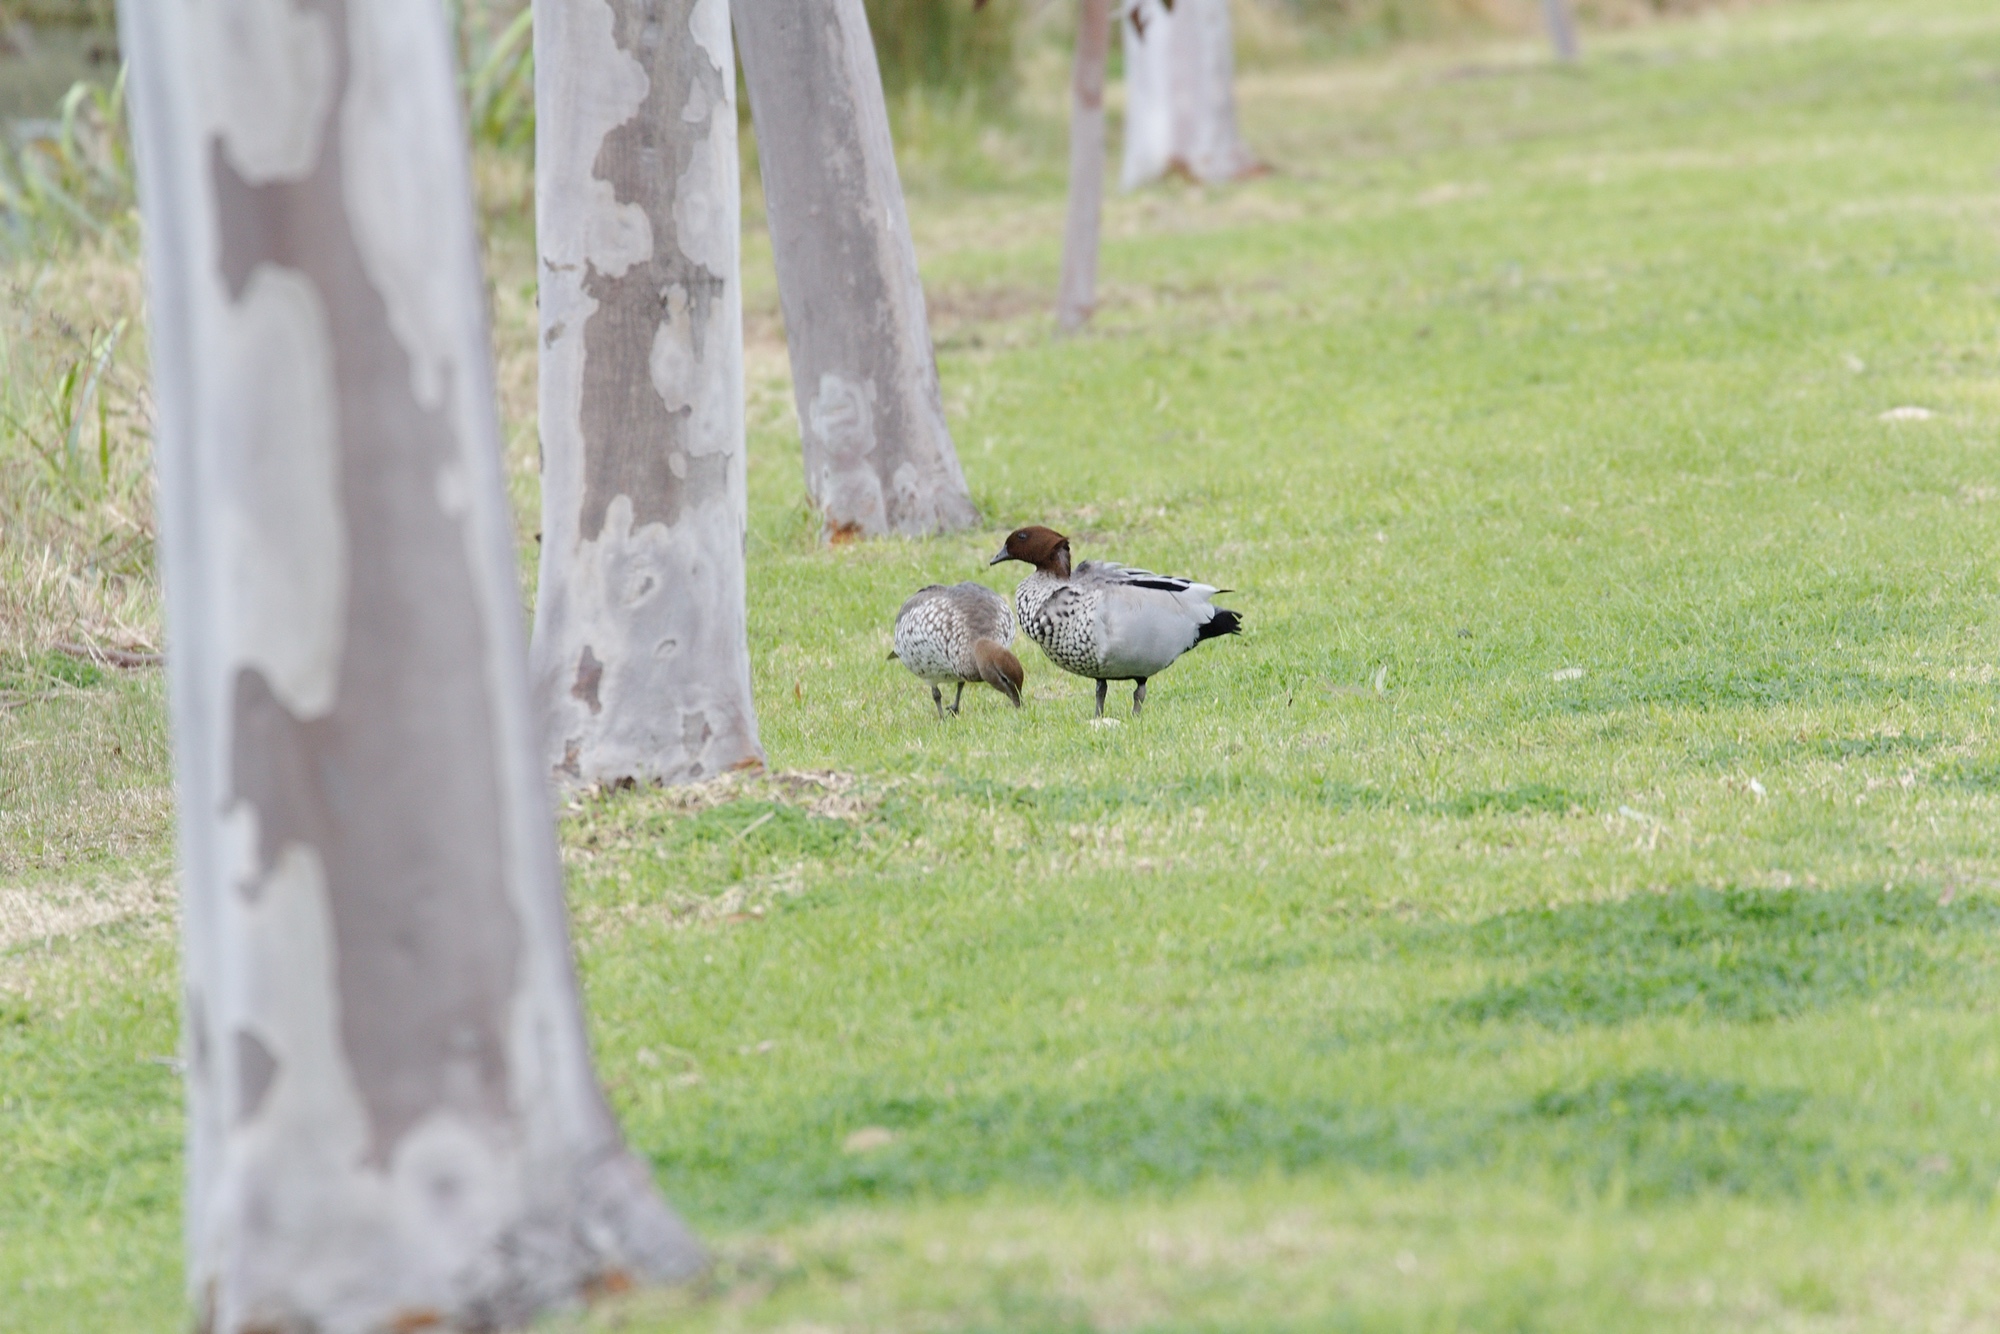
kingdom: Animalia
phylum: Chordata
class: Aves
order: Anseriformes
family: Anatidae
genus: Chenonetta
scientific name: Chenonetta jubata
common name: Maned duck
